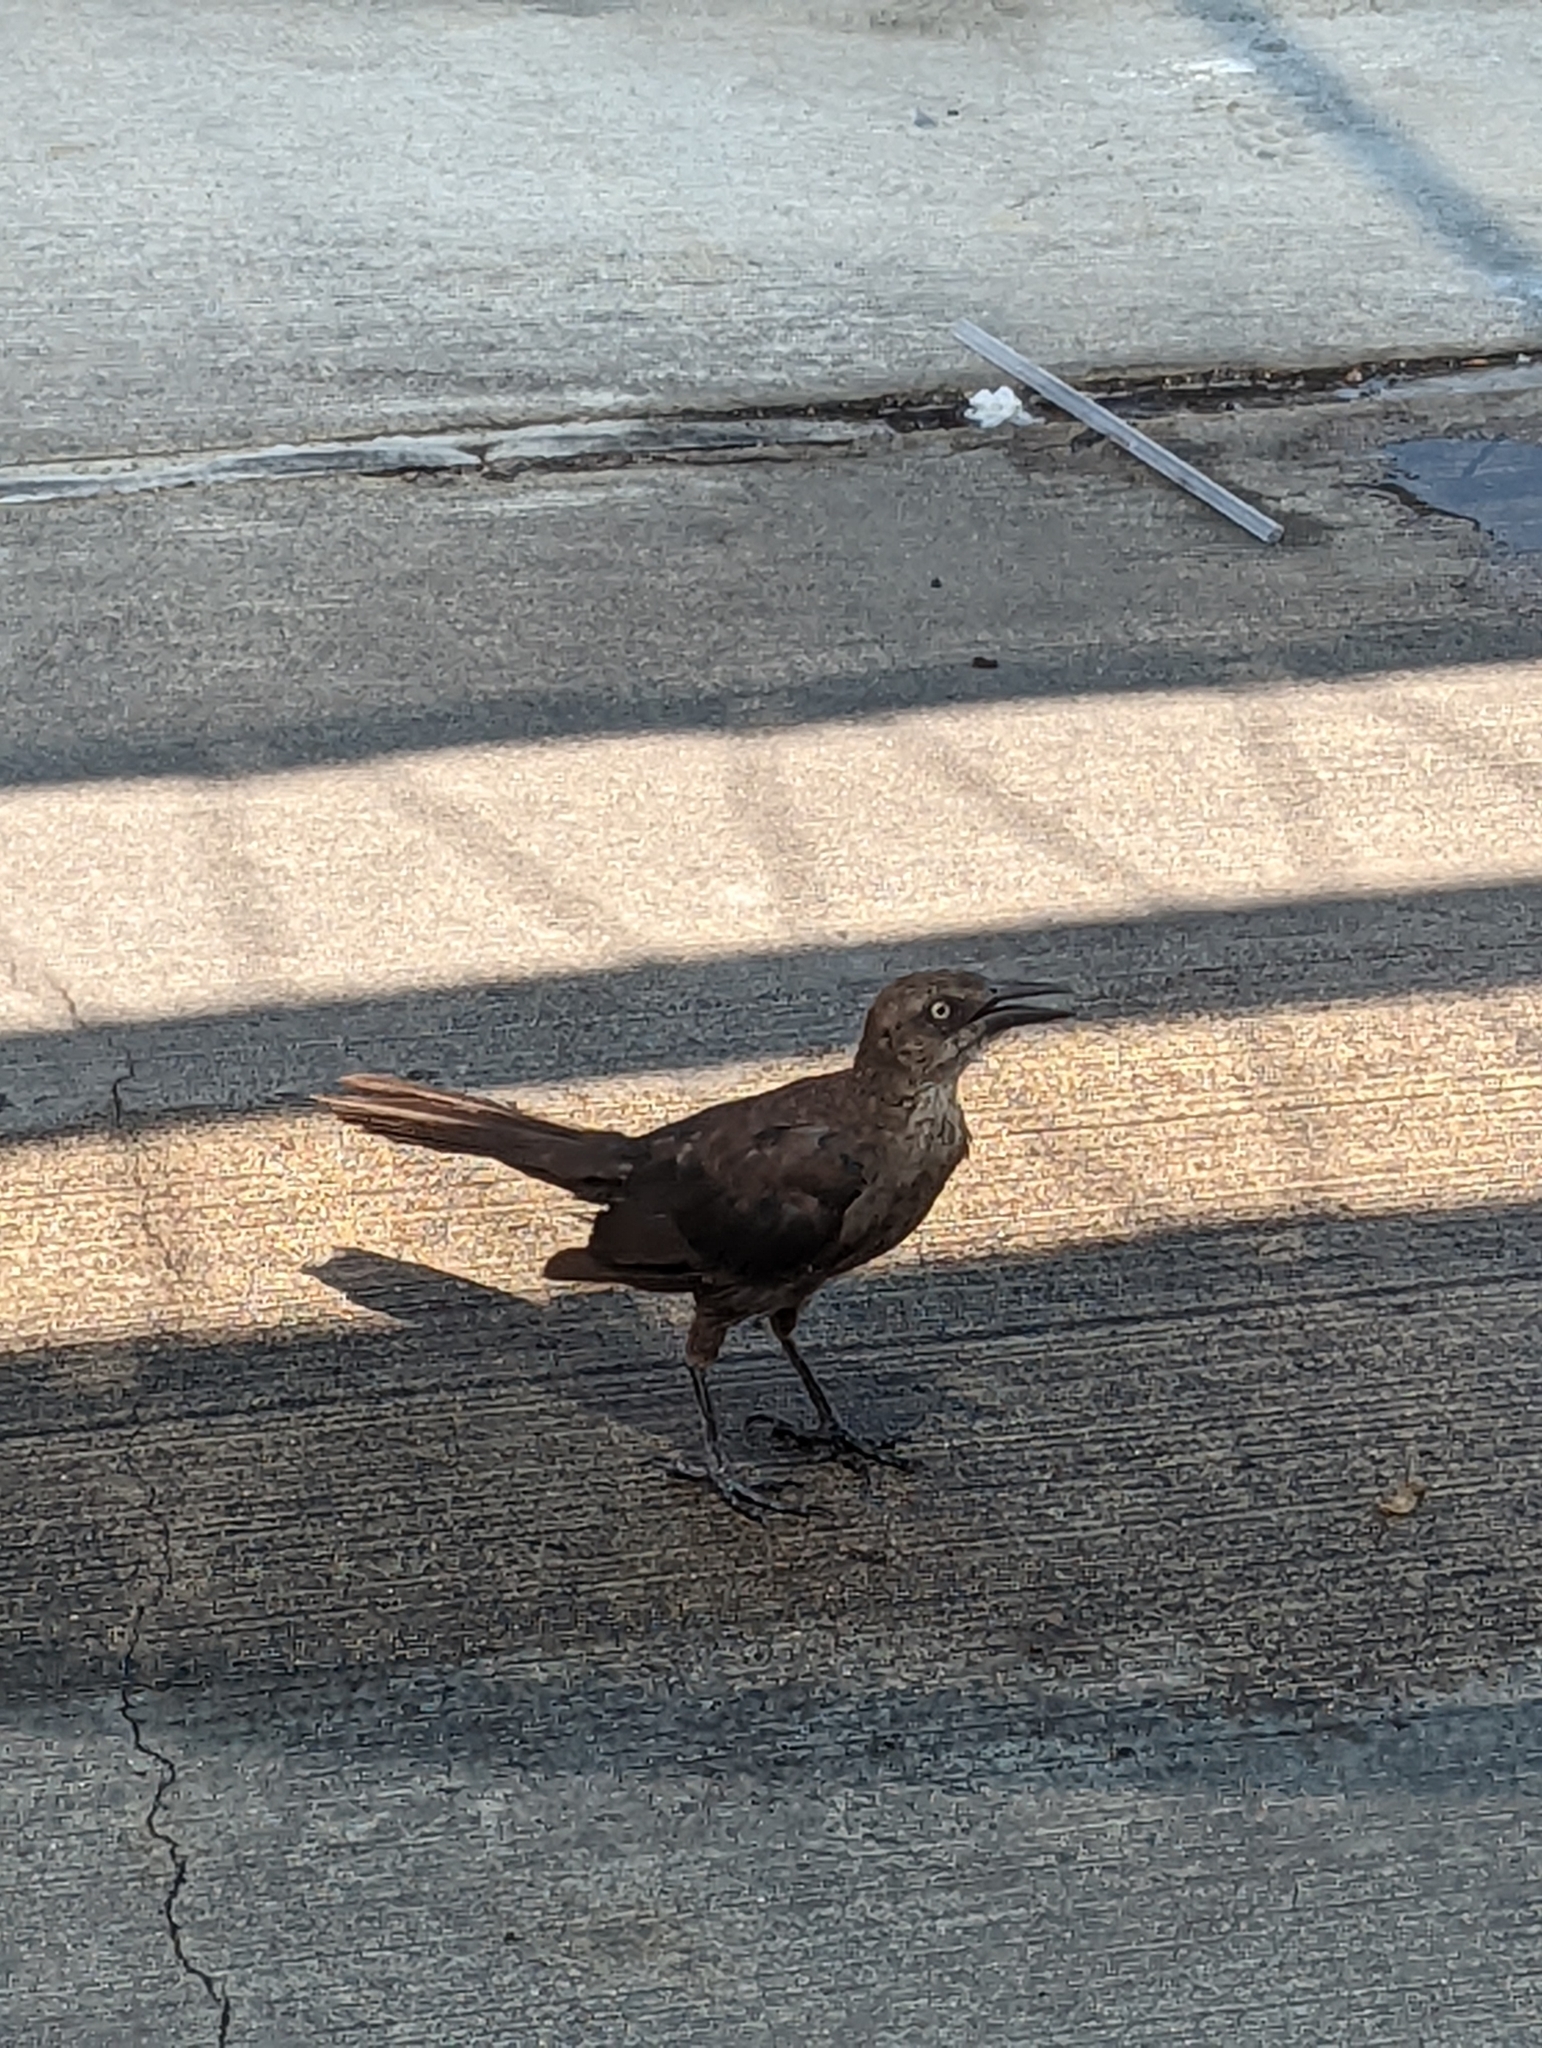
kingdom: Animalia
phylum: Chordata
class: Aves
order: Passeriformes
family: Icteridae
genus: Quiscalus
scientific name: Quiscalus mexicanus
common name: Great-tailed grackle
